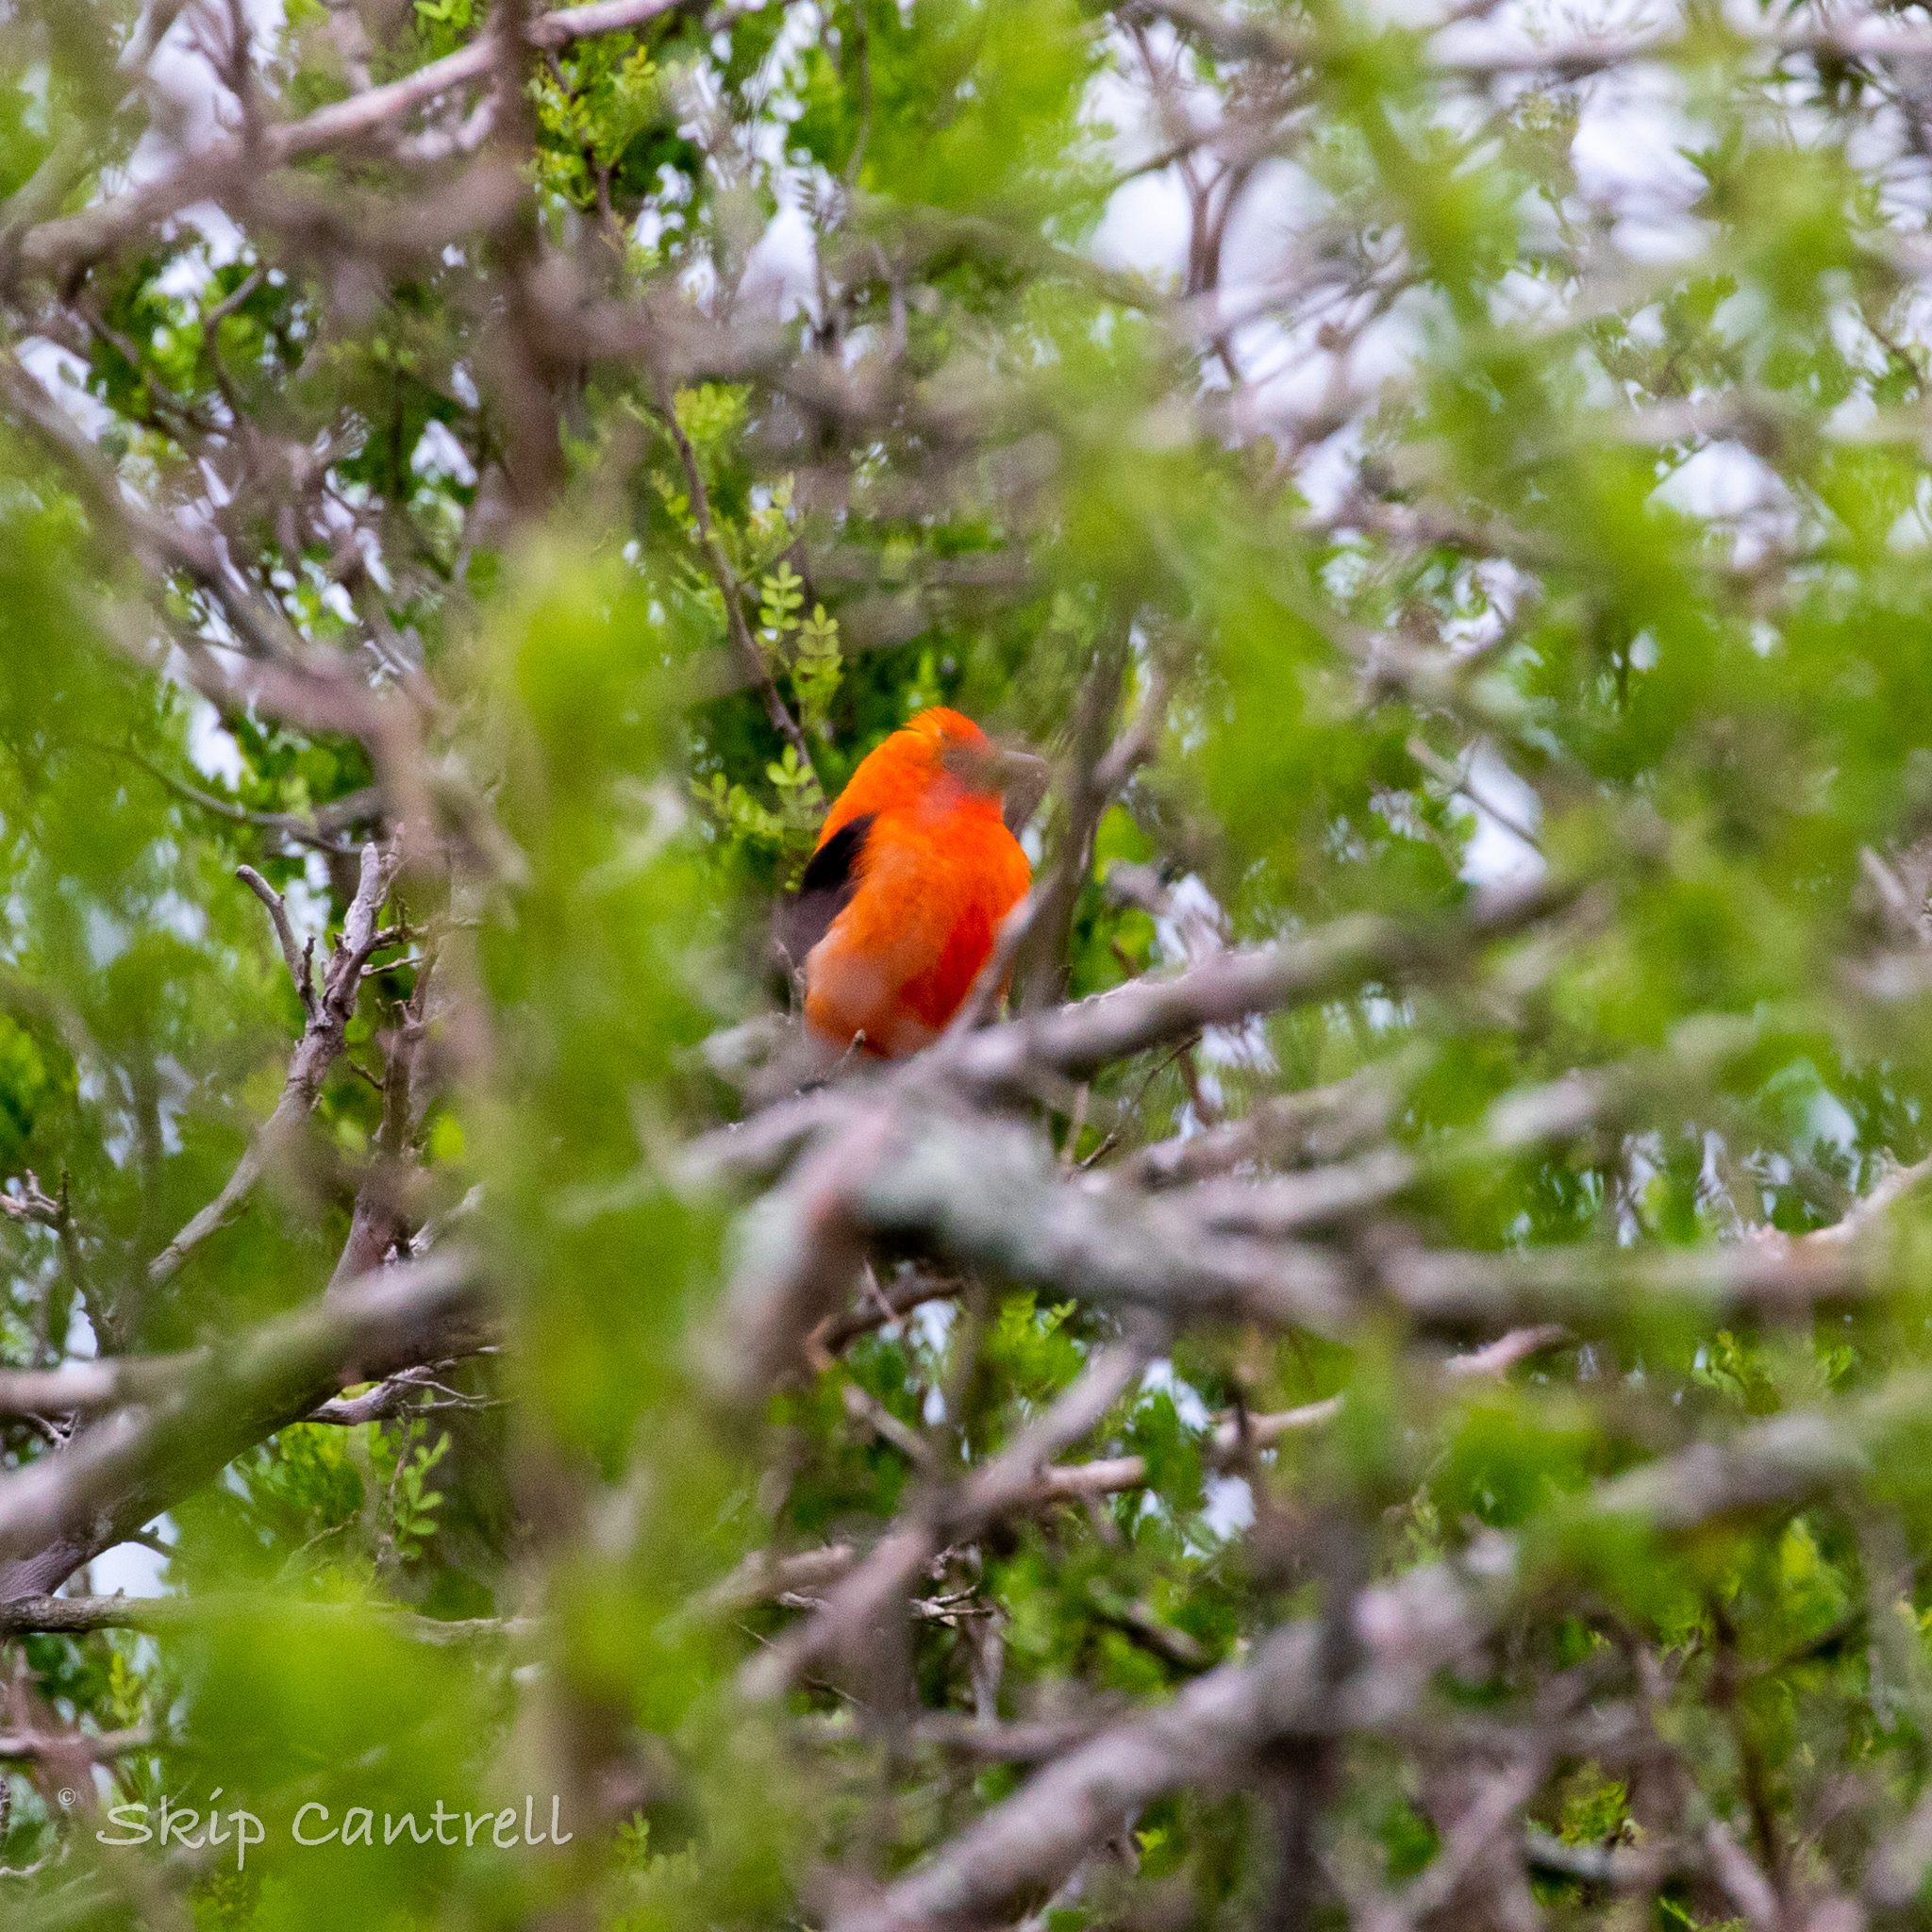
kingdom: Animalia
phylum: Chordata
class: Aves
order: Passeriformes
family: Cardinalidae
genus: Piranga
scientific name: Piranga olivacea
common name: Scarlet tanager
